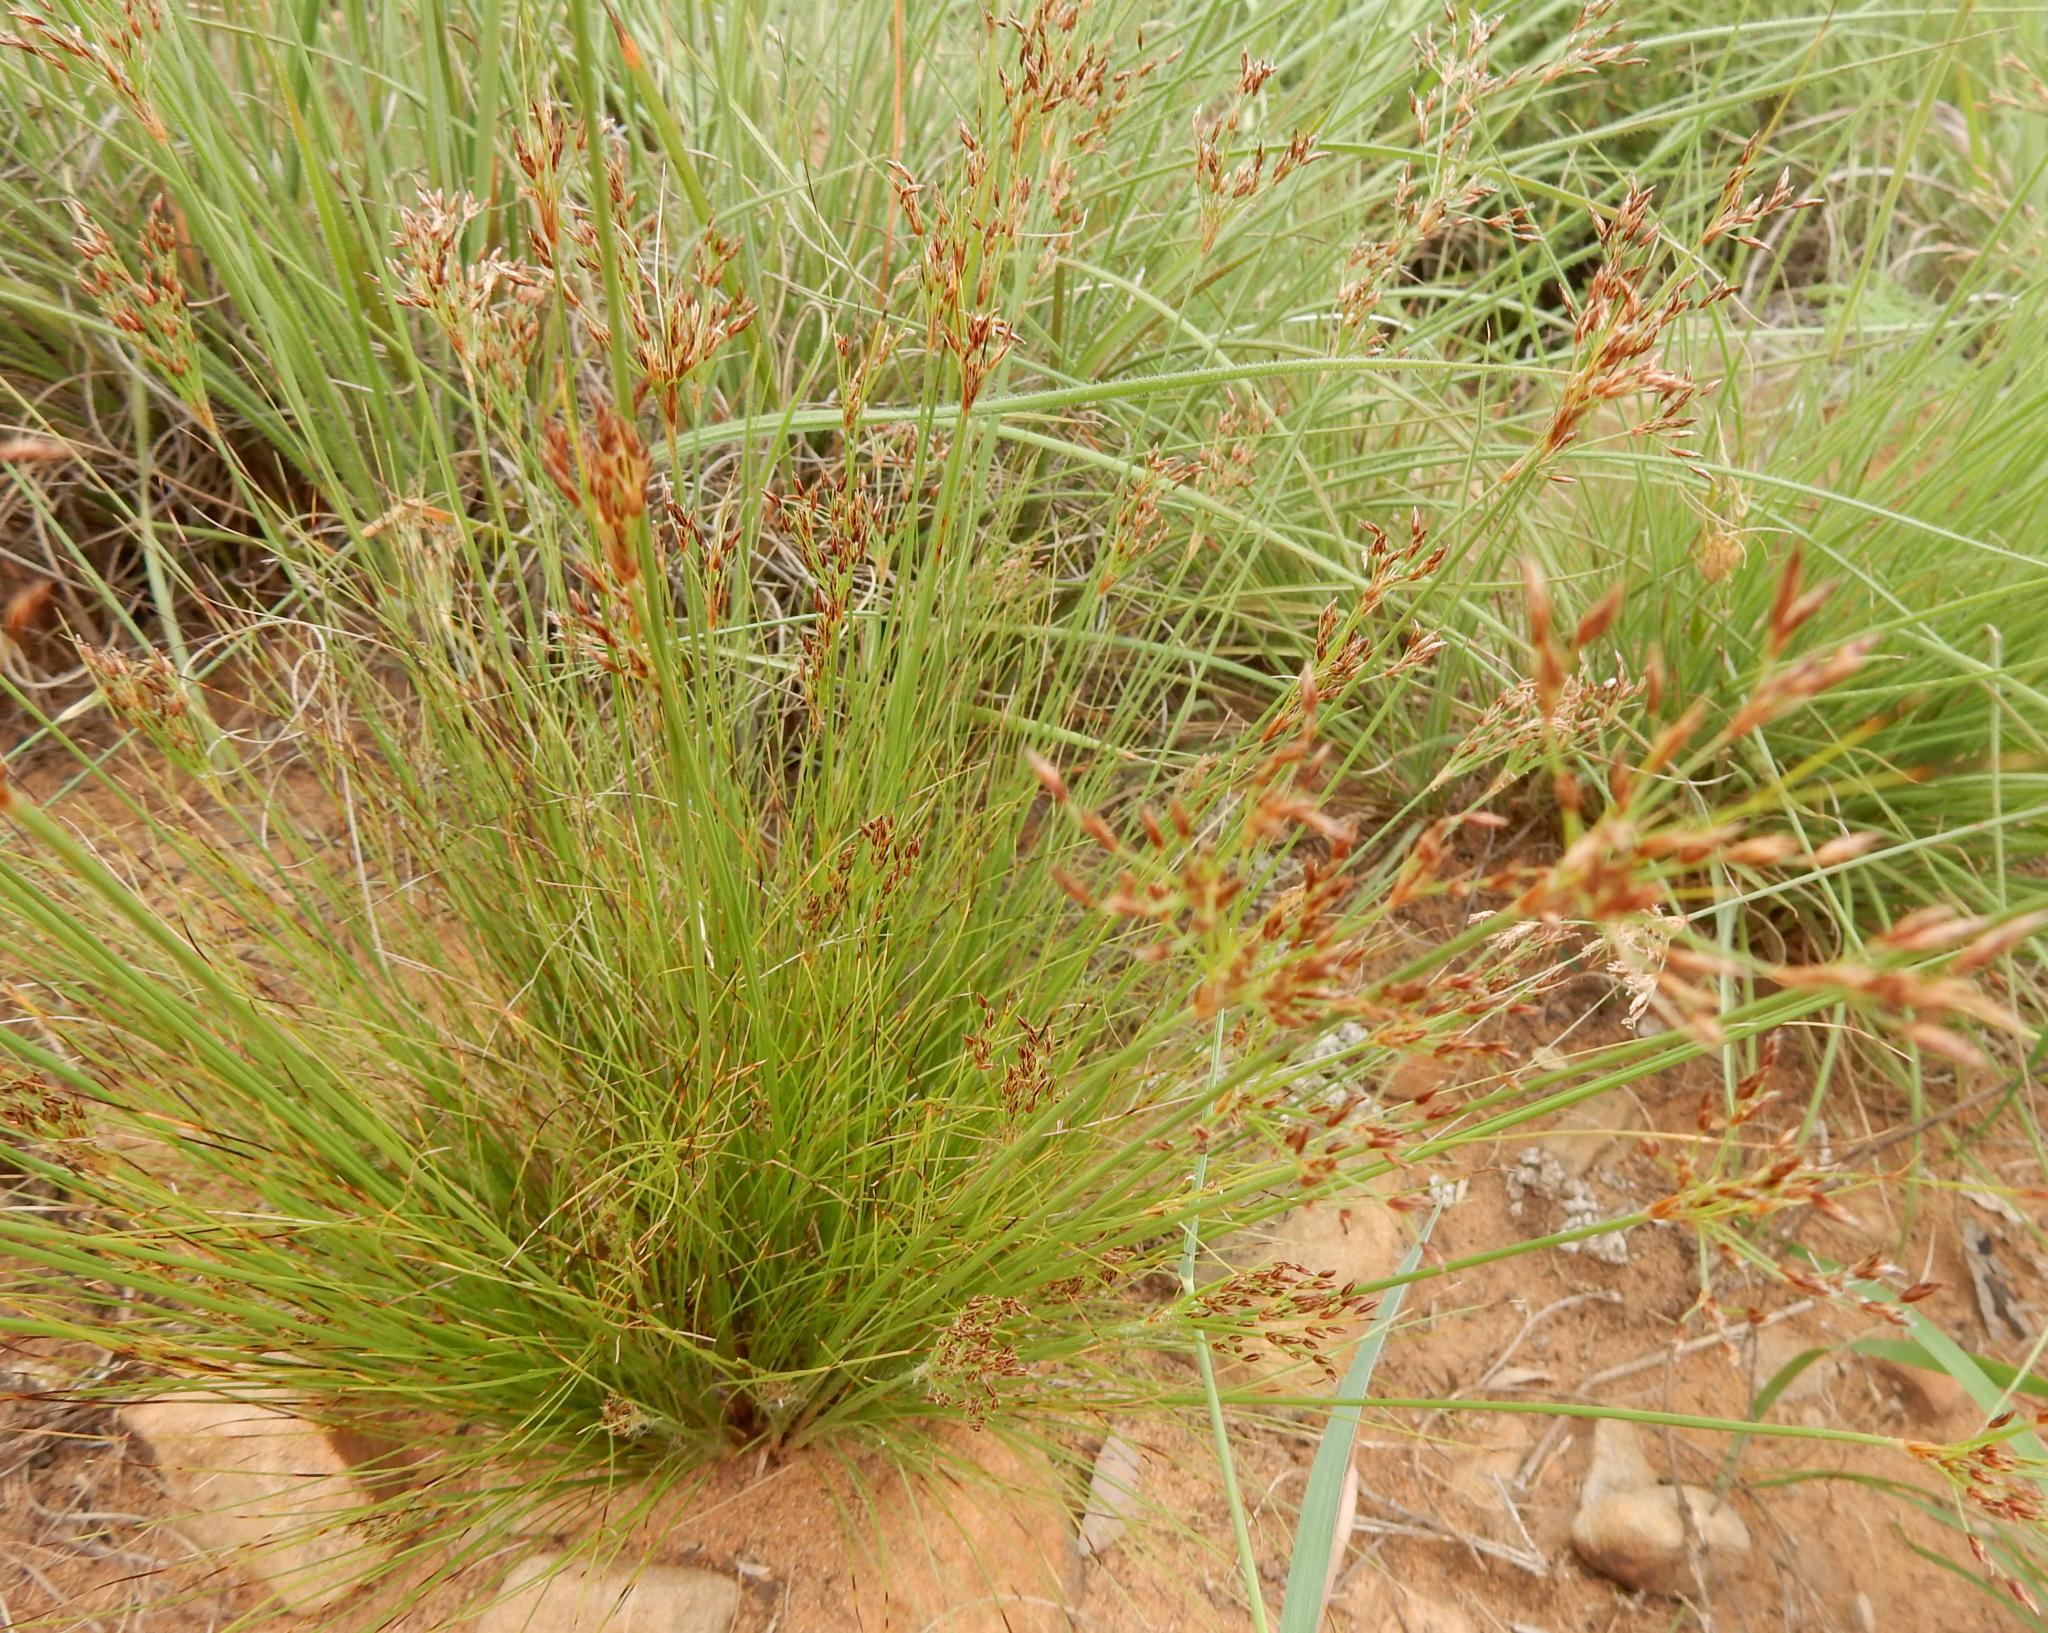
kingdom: Plantae
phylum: Tracheophyta
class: Liliopsida
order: Poales
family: Cyperaceae
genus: Bulbostylis
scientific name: Bulbostylis burchellii
